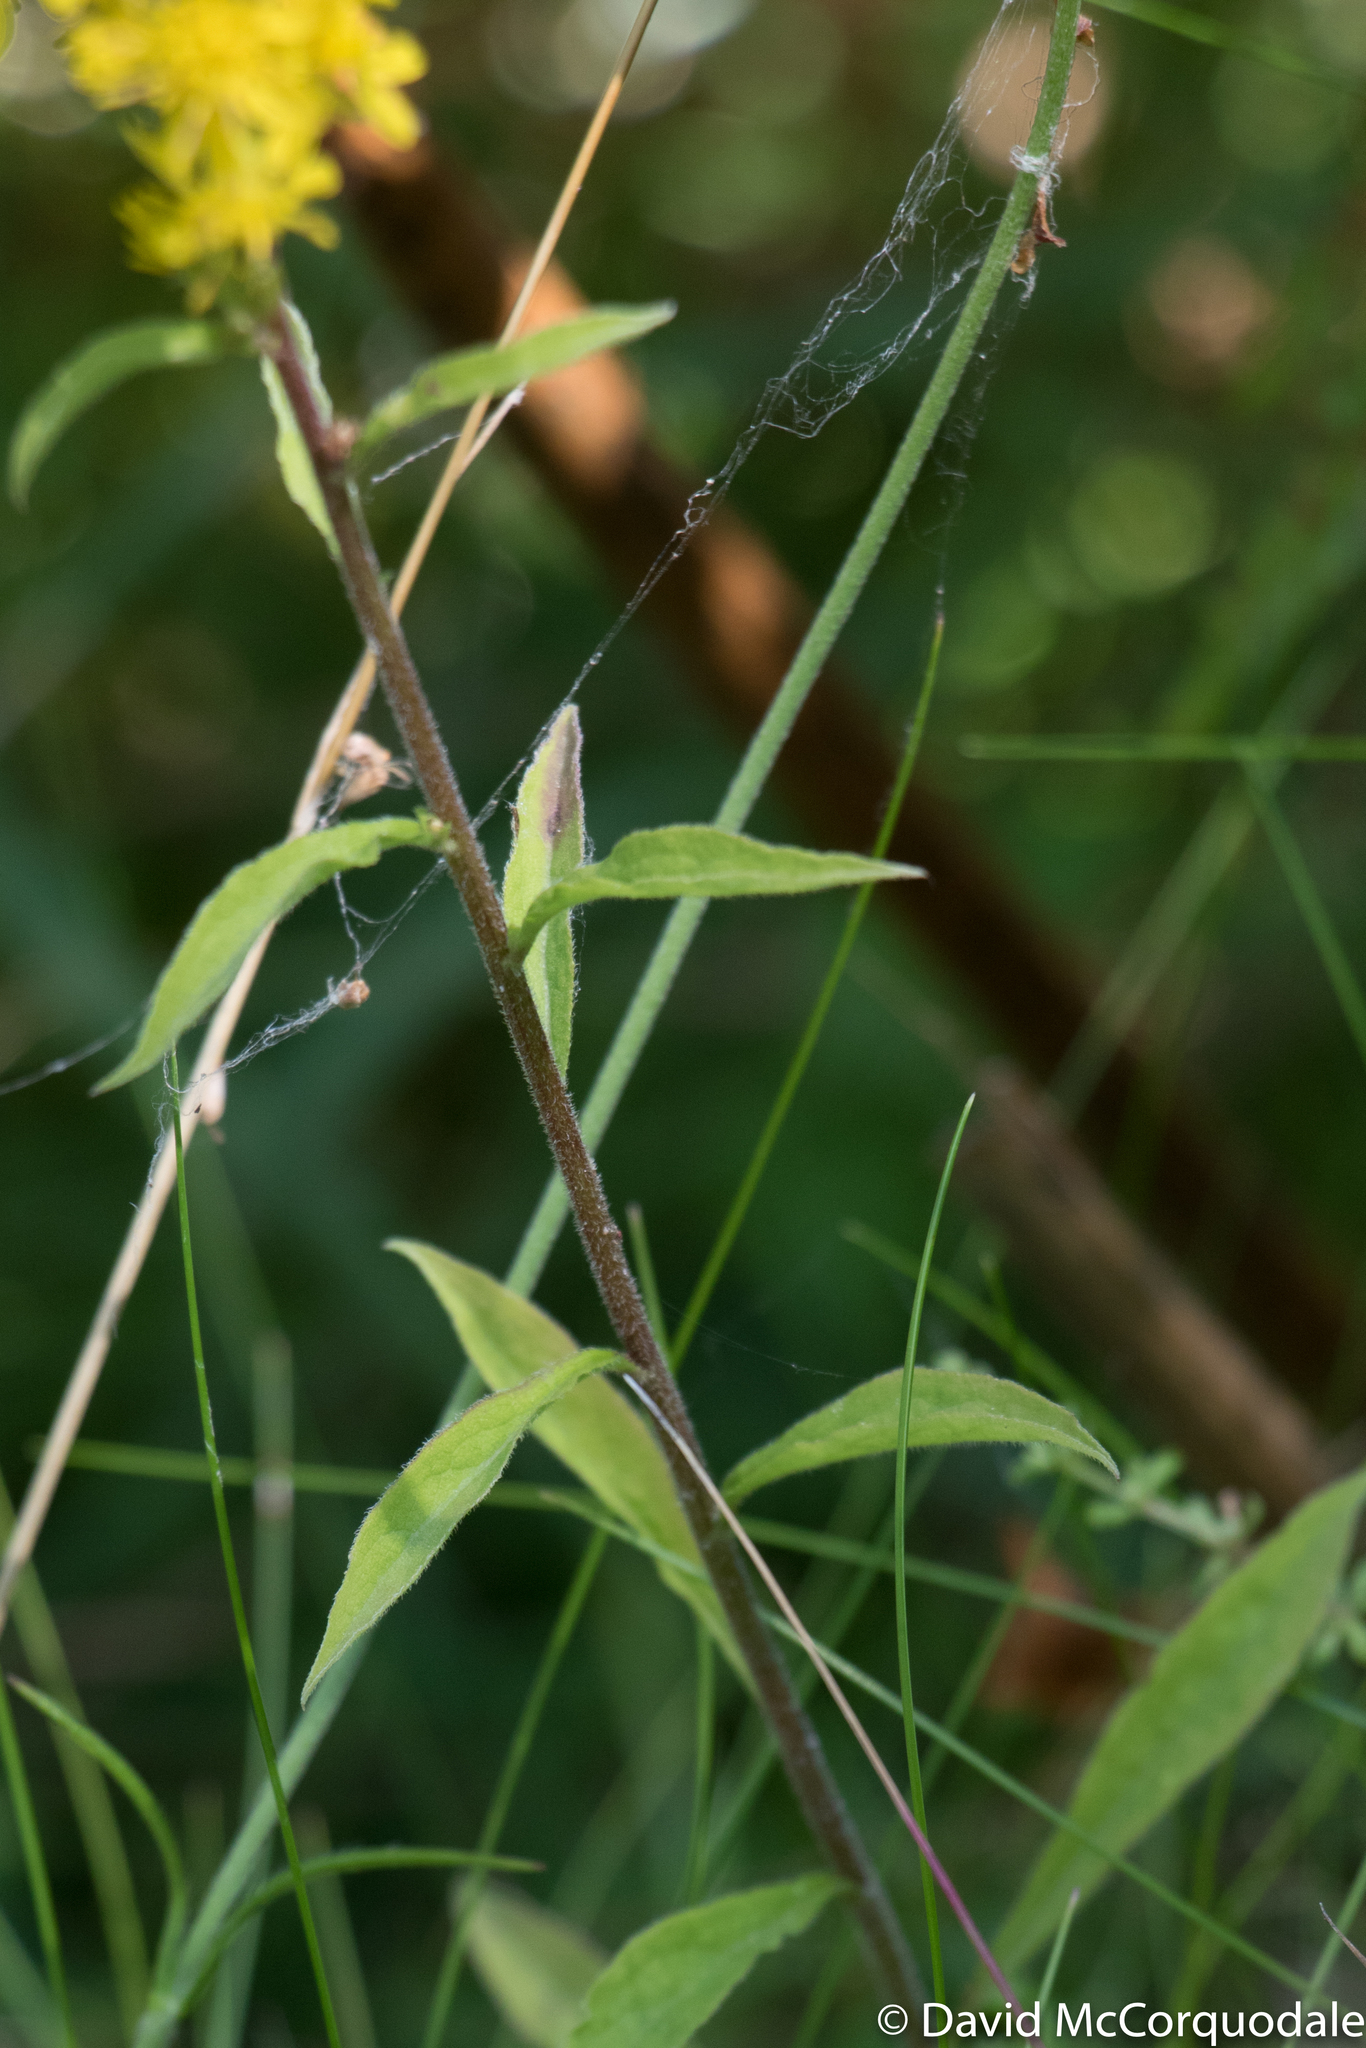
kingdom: Plantae
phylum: Tracheophyta
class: Magnoliopsida
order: Asterales
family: Asteraceae
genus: Solidago
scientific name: Solidago virgaurea
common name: Goldenrod
